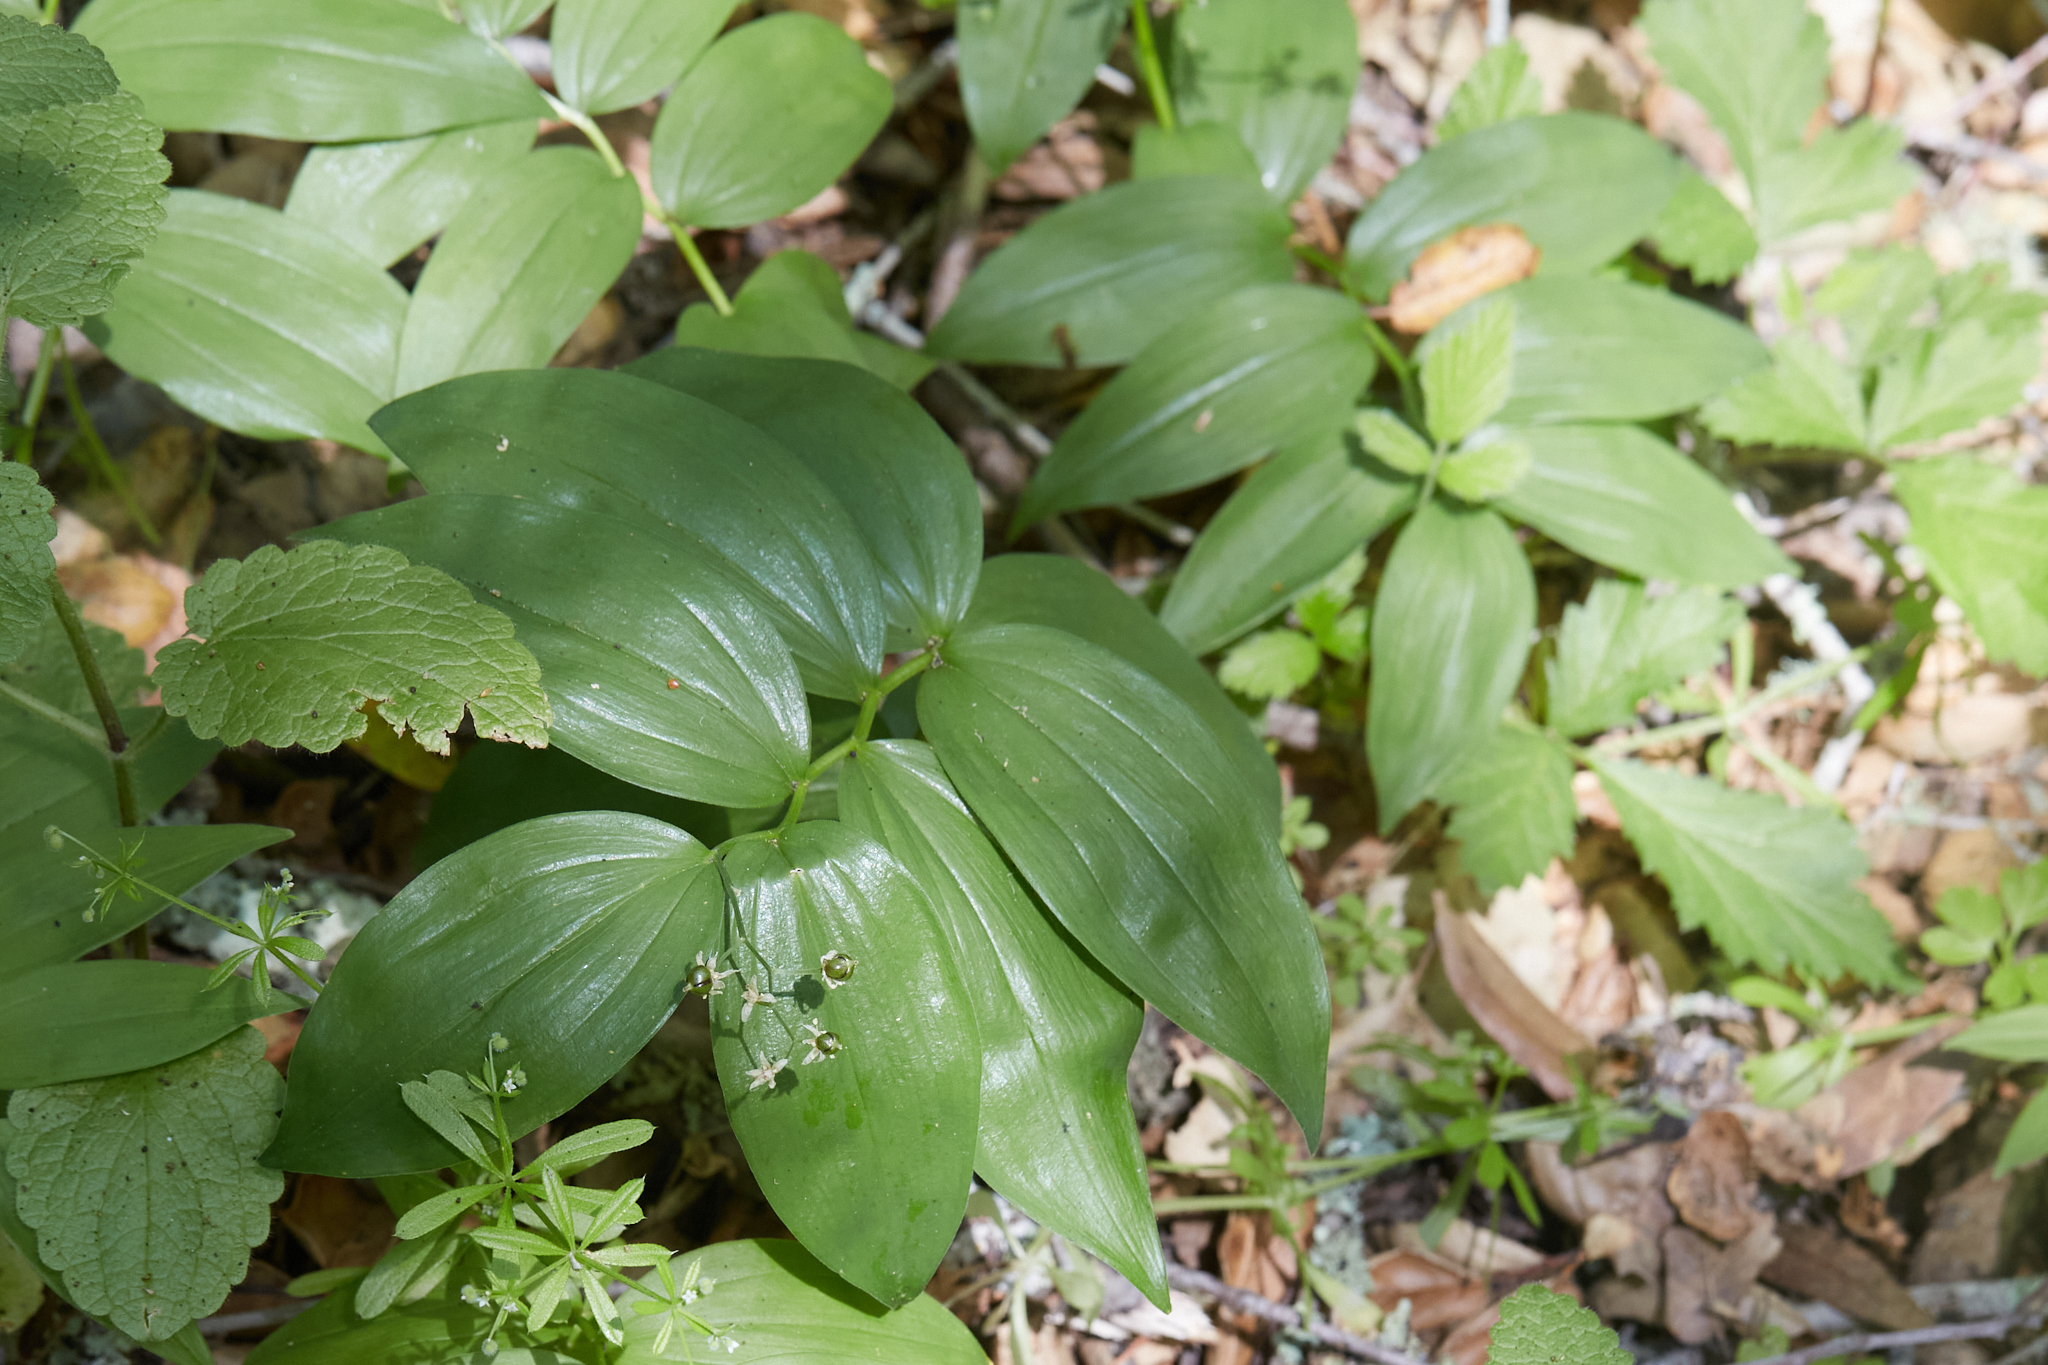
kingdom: Plantae
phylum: Tracheophyta
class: Liliopsida
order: Asparagales
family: Asparagaceae
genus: Maianthemum
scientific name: Maianthemum stellatum
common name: Little false solomon's seal
